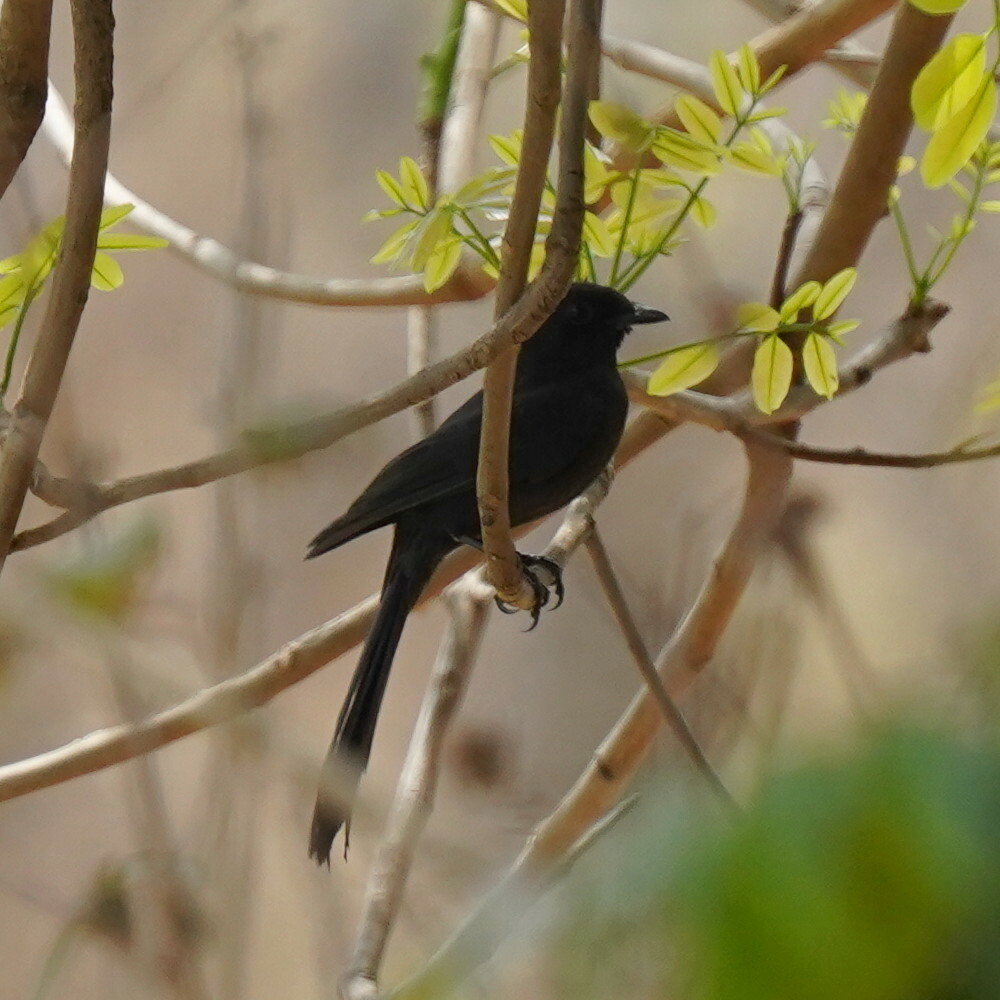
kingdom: Animalia
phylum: Chordata
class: Aves
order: Passeriformes
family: Muscicapidae
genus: Melaenornis
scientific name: Melaenornis edolioides
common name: Northern black flycatcher
